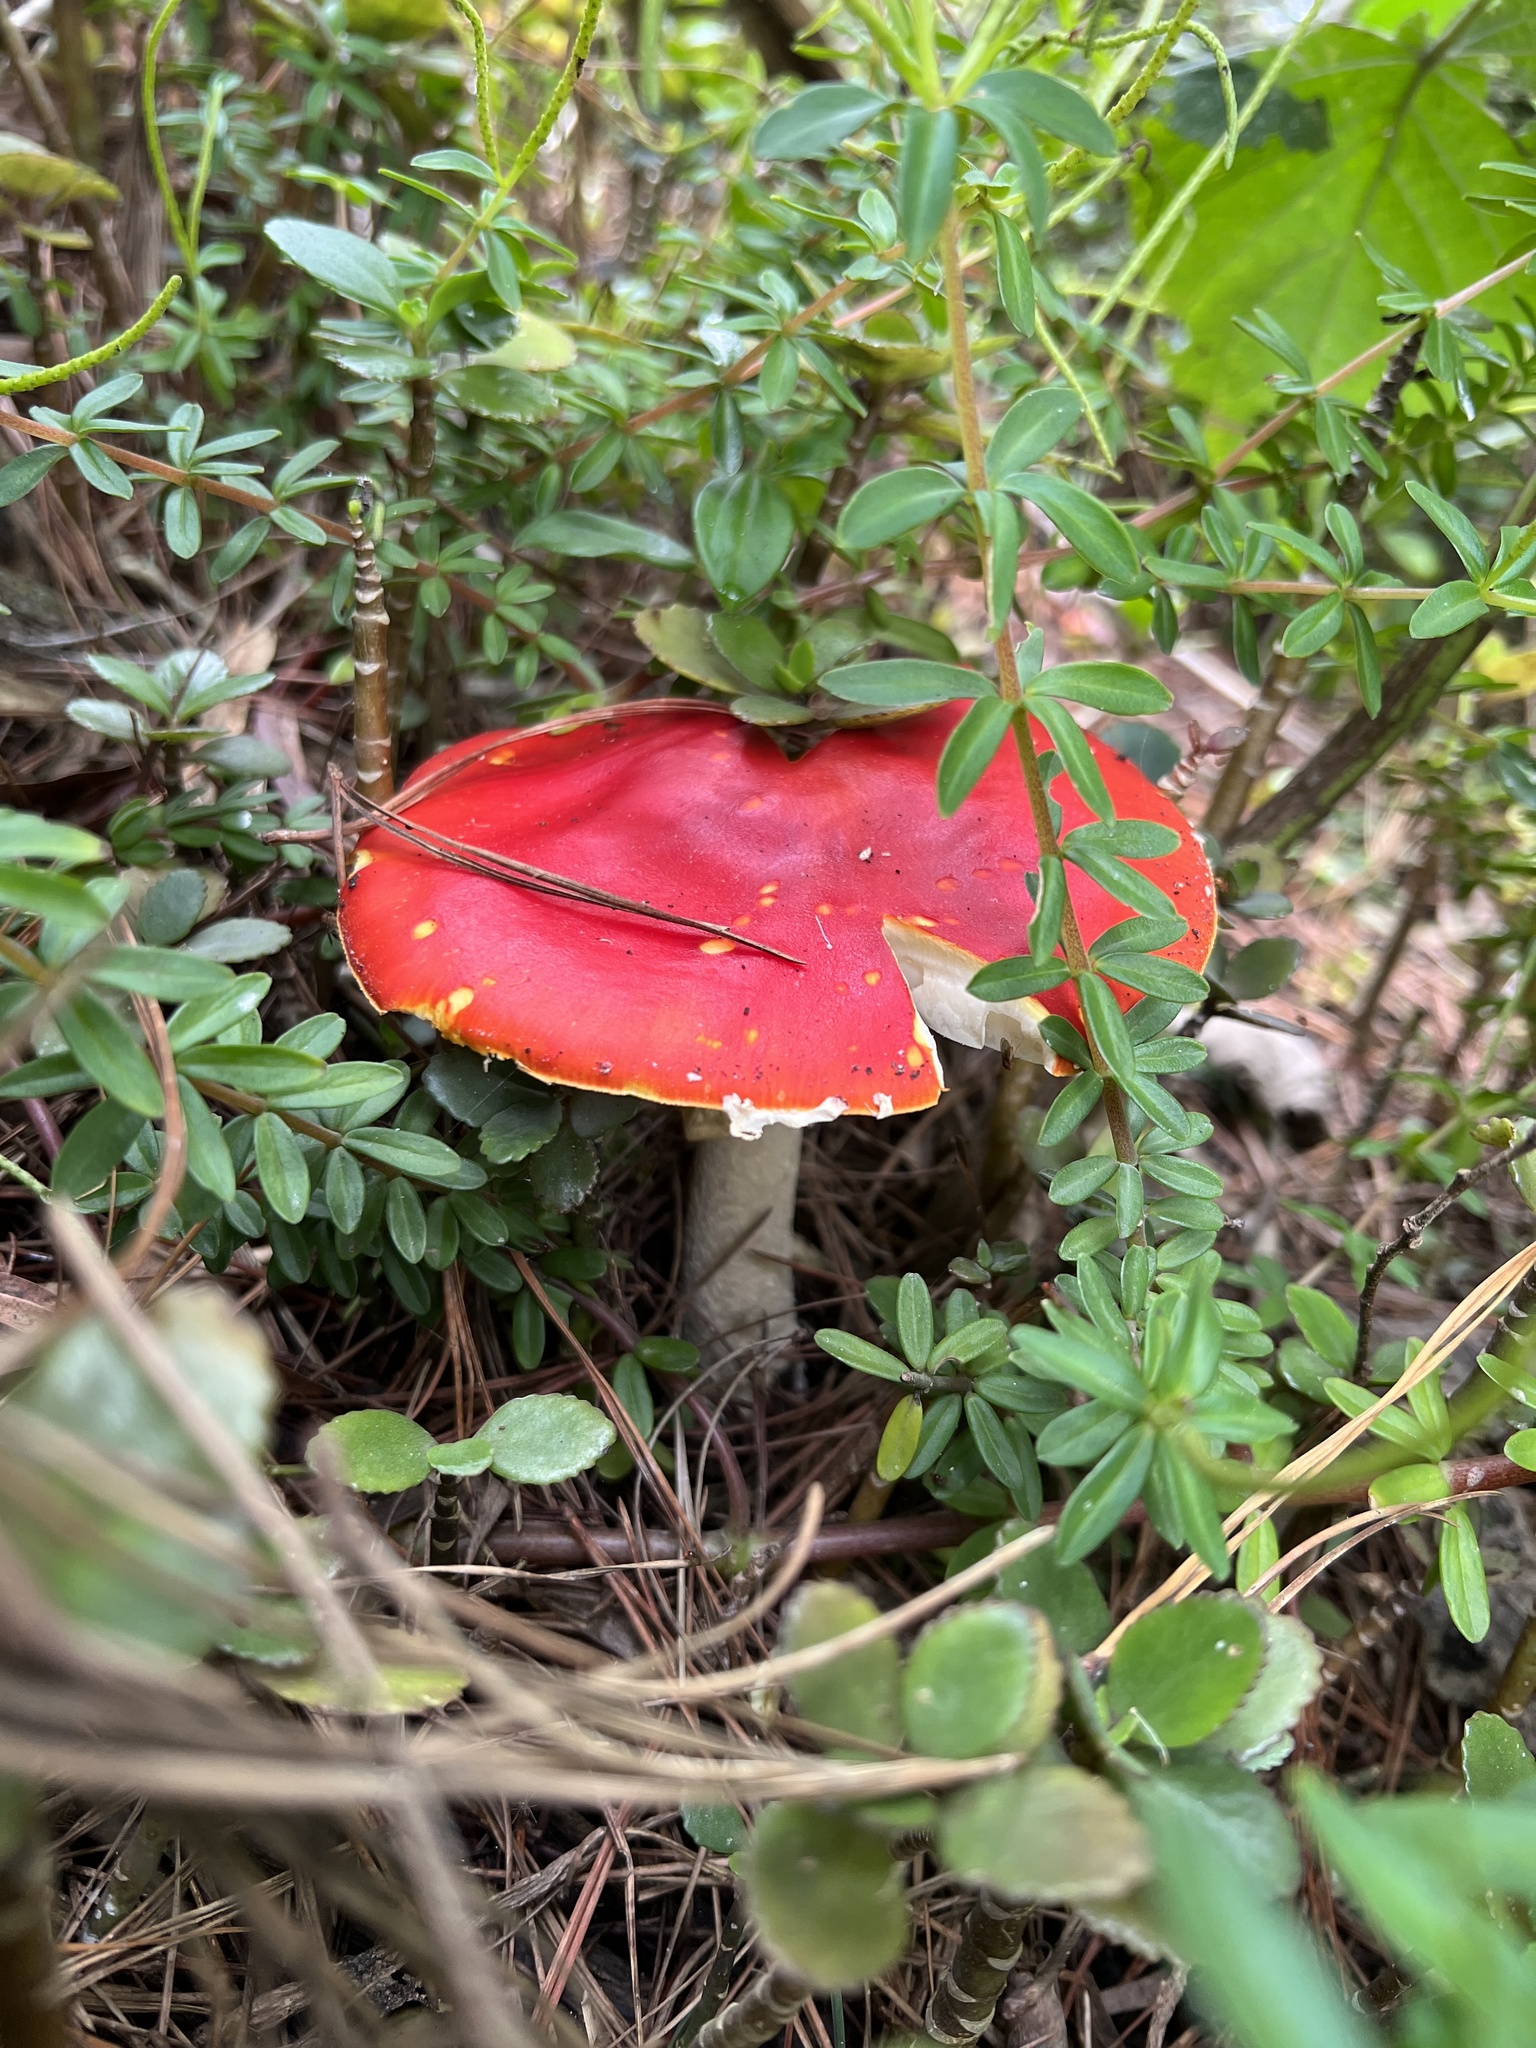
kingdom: Fungi
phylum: Basidiomycota
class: Agaricomycetes
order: Agaricales
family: Amanitaceae
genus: Amanita
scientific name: Amanita muscaria
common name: Fly agaric
